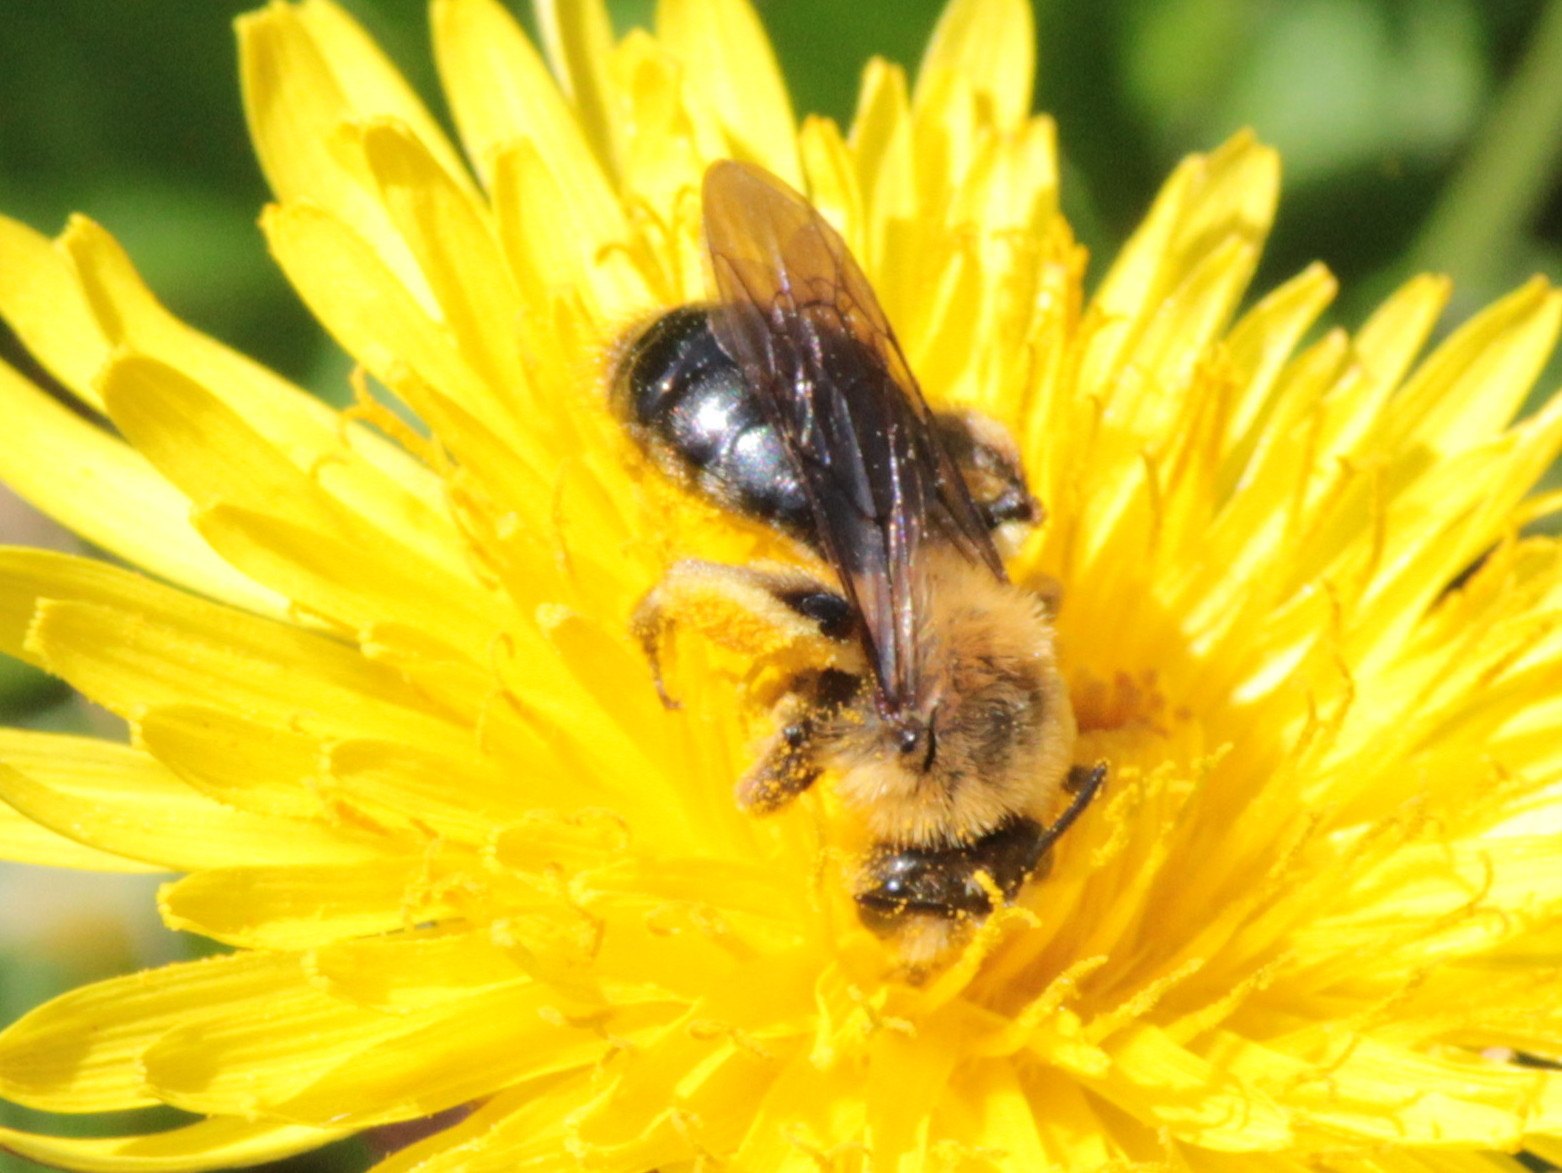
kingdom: Animalia
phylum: Arthropoda
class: Insecta
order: Hymenoptera
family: Andrenidae
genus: Andrena
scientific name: Andrena dunningi
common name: Dunning's miner
